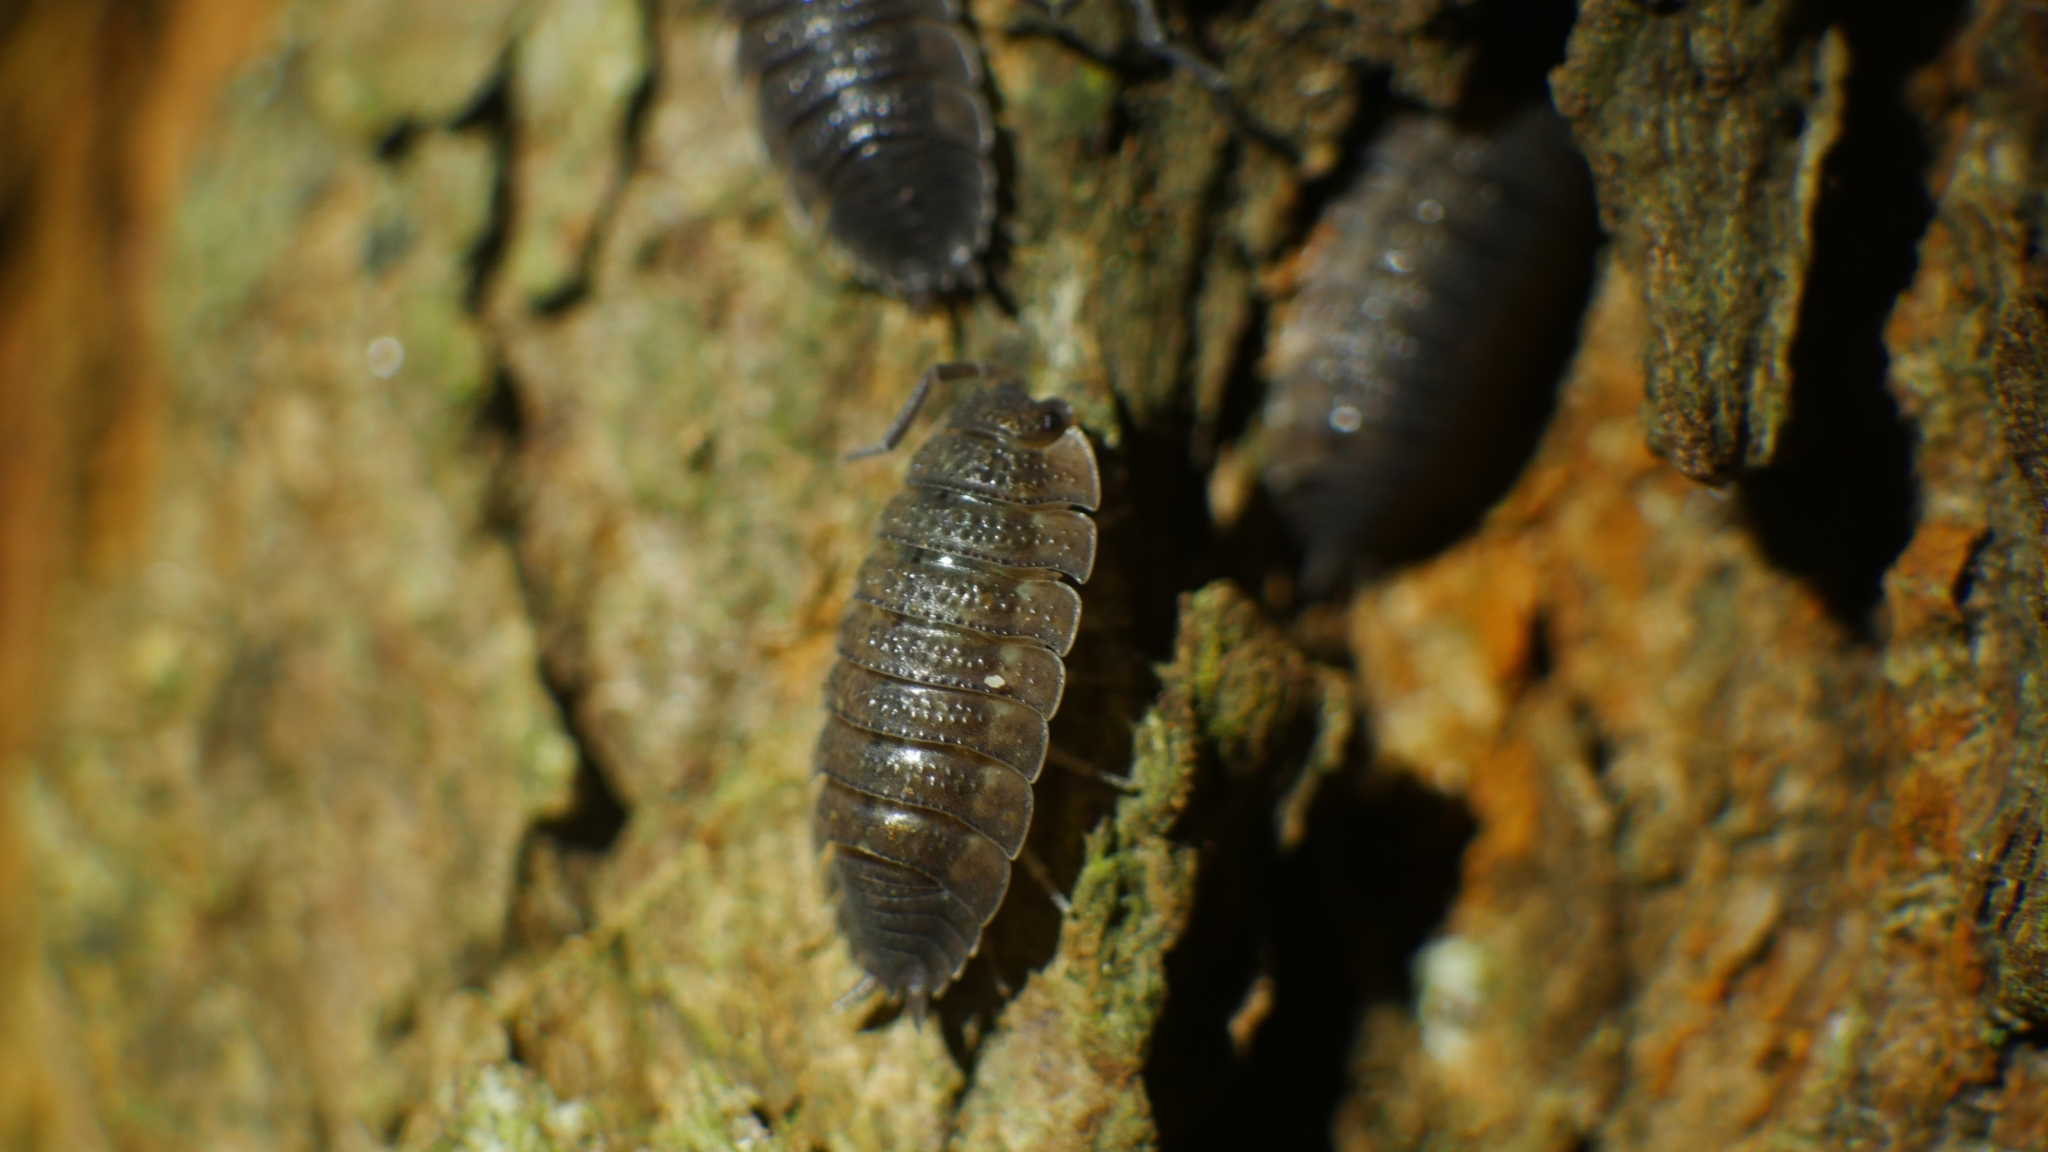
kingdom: Animalia
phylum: Arthropoda
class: Malacostraca
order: Isopoda
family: Porcellionidae
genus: Porcellio
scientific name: Porcellio scaber
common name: Common rough woodlouse
